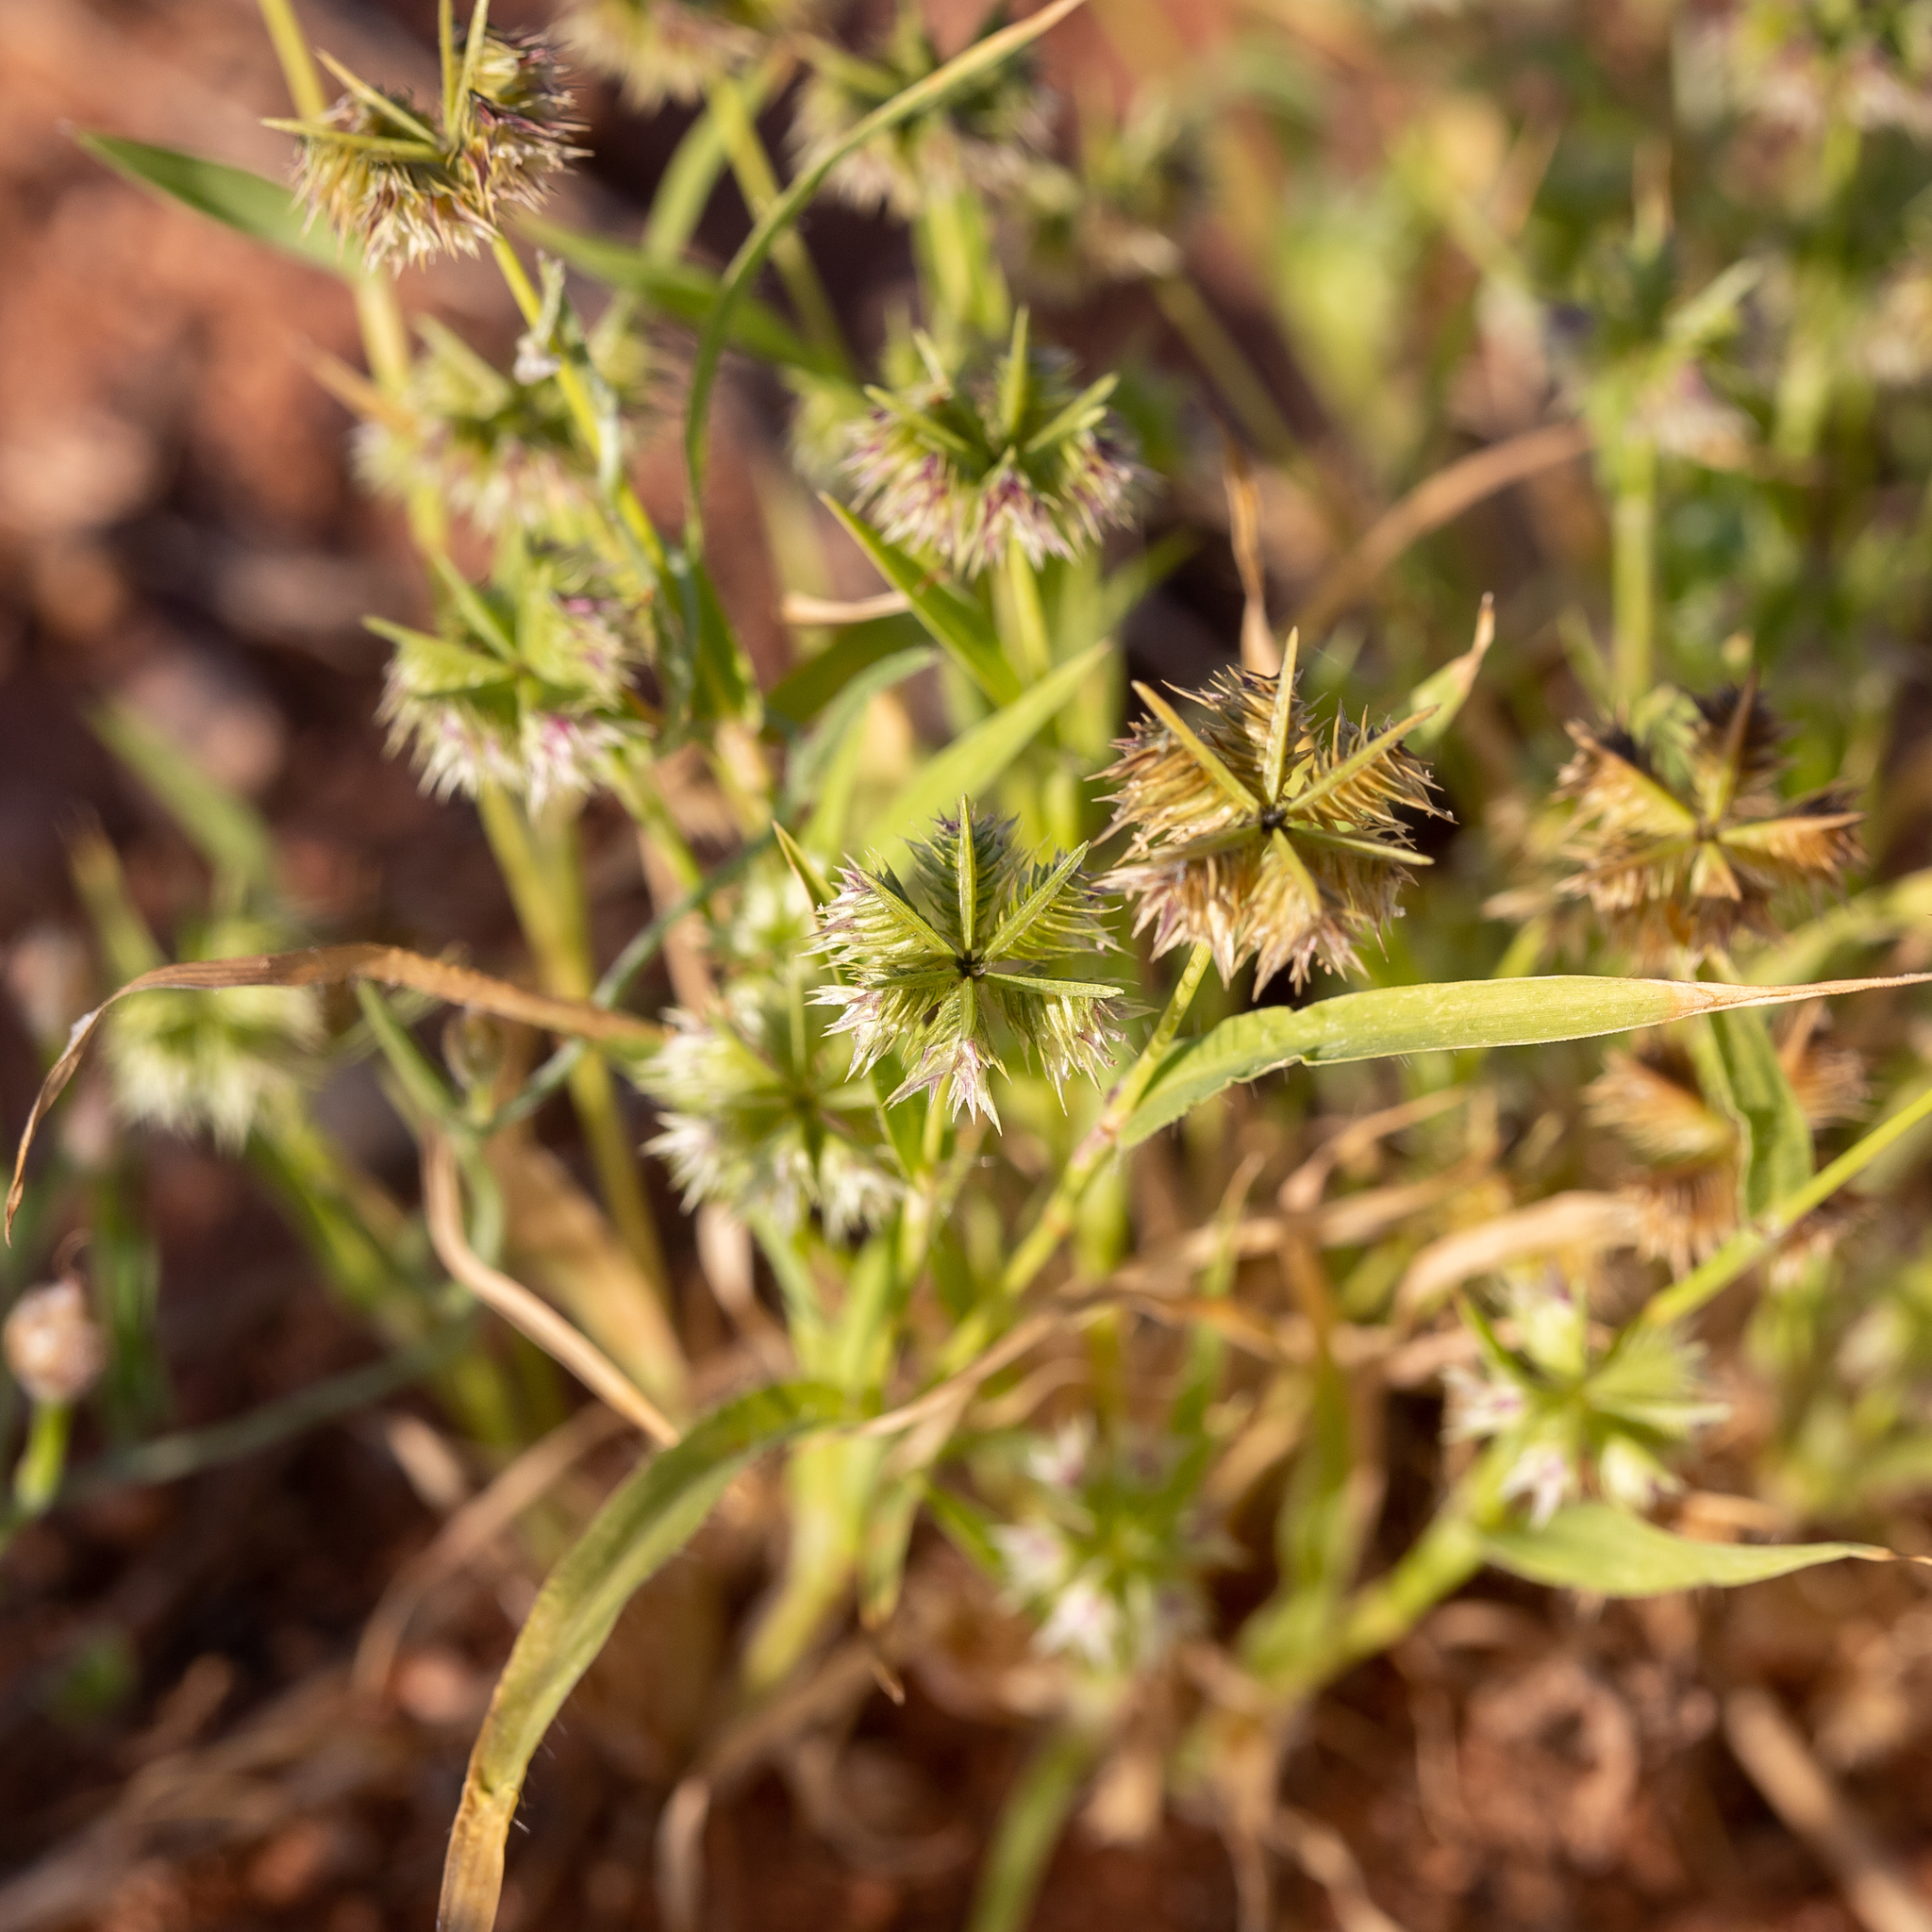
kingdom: Plantae
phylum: Tracheophyta
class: Liliopsida
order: Poales
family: Poaceae
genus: Dactyloctenium
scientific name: Dactyloctenium radulans
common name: Button-grass
